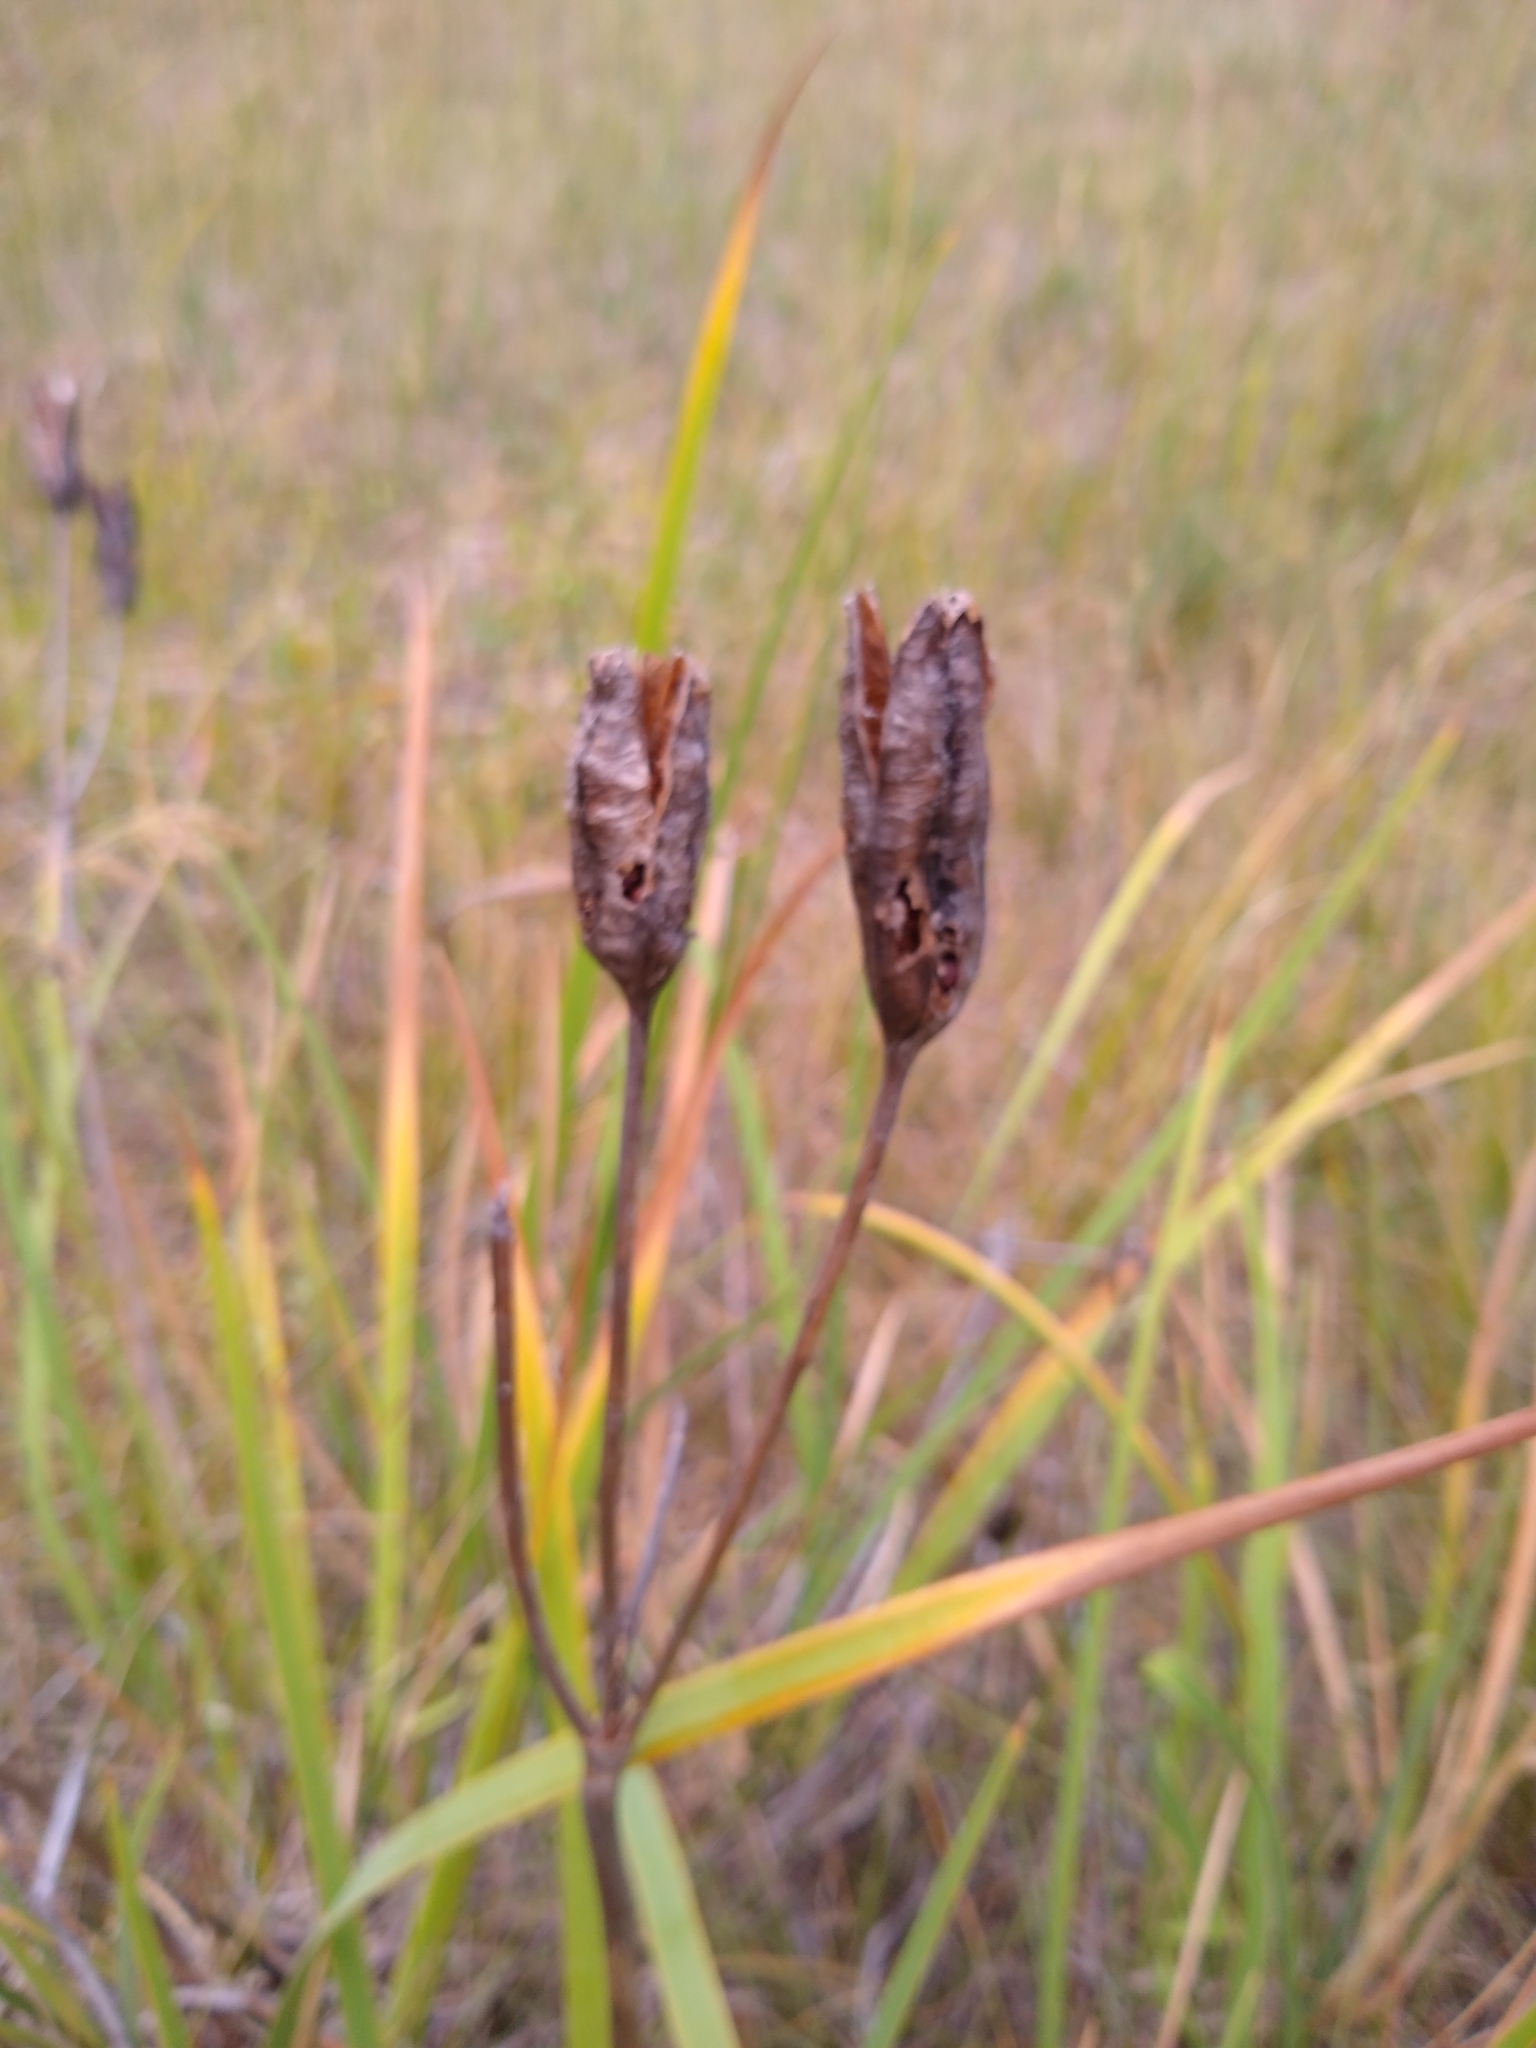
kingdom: Plantae
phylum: Tracheophyta
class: Liliopsida
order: Asparagales
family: Iridaceae
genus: Iris
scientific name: Iris missouriensis
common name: Rocky mountain iris
